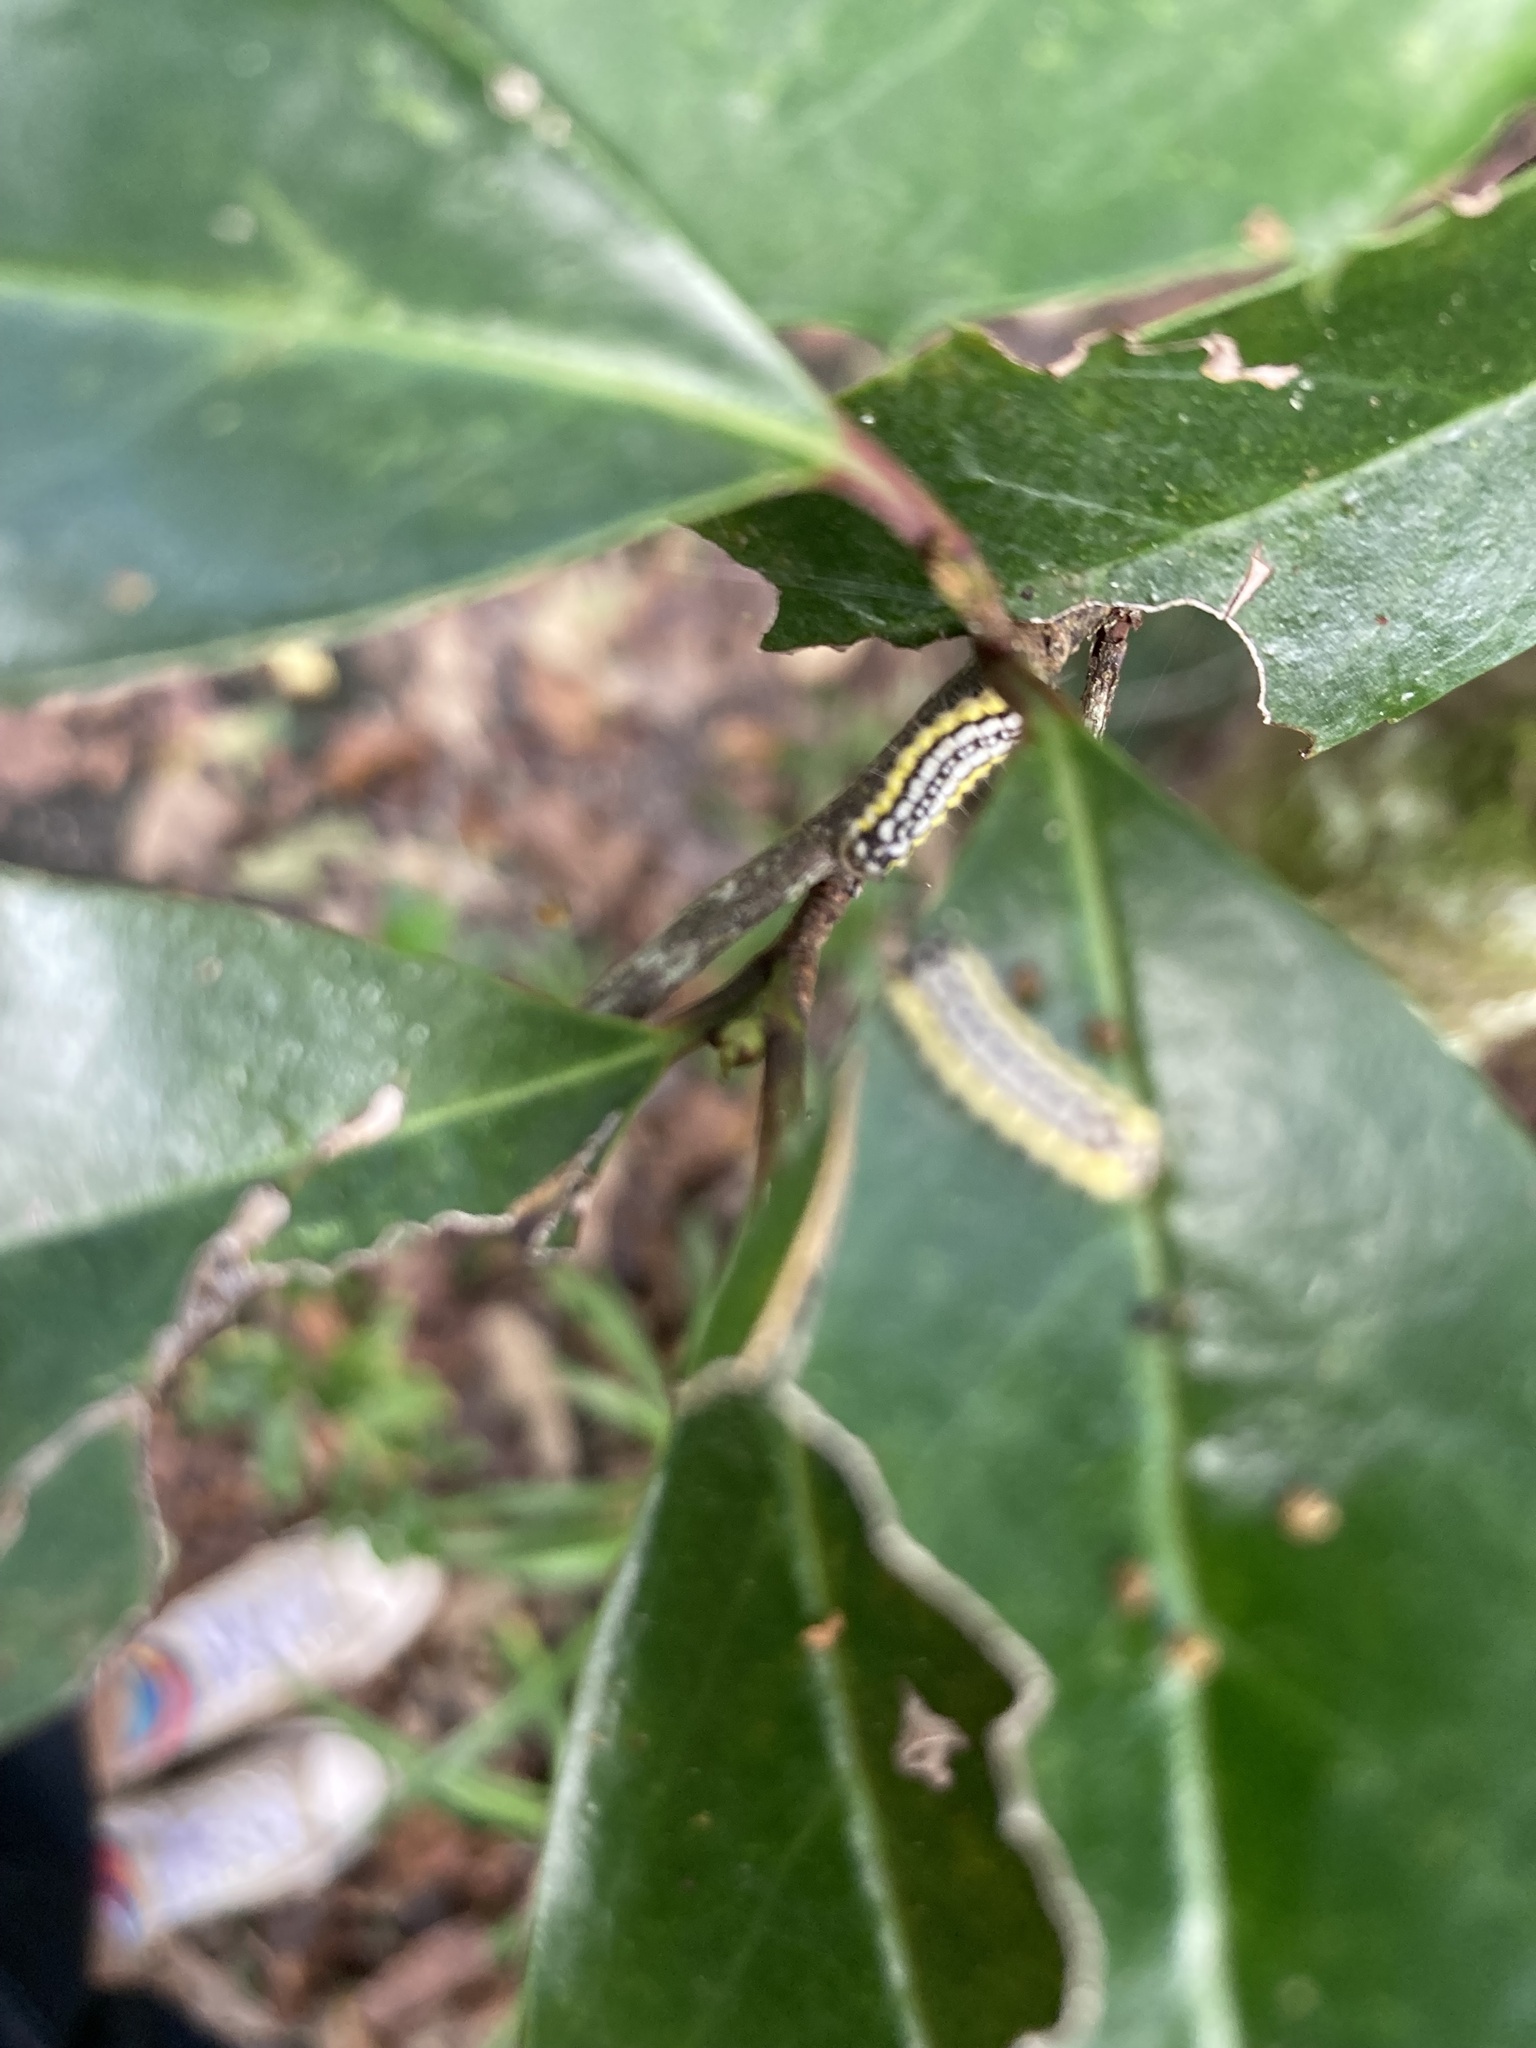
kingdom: Animalia
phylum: Arthropoda
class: Insecta
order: Lepidoptera
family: Zygaenidae
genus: Neoprocris
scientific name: Neoprocris floridana
